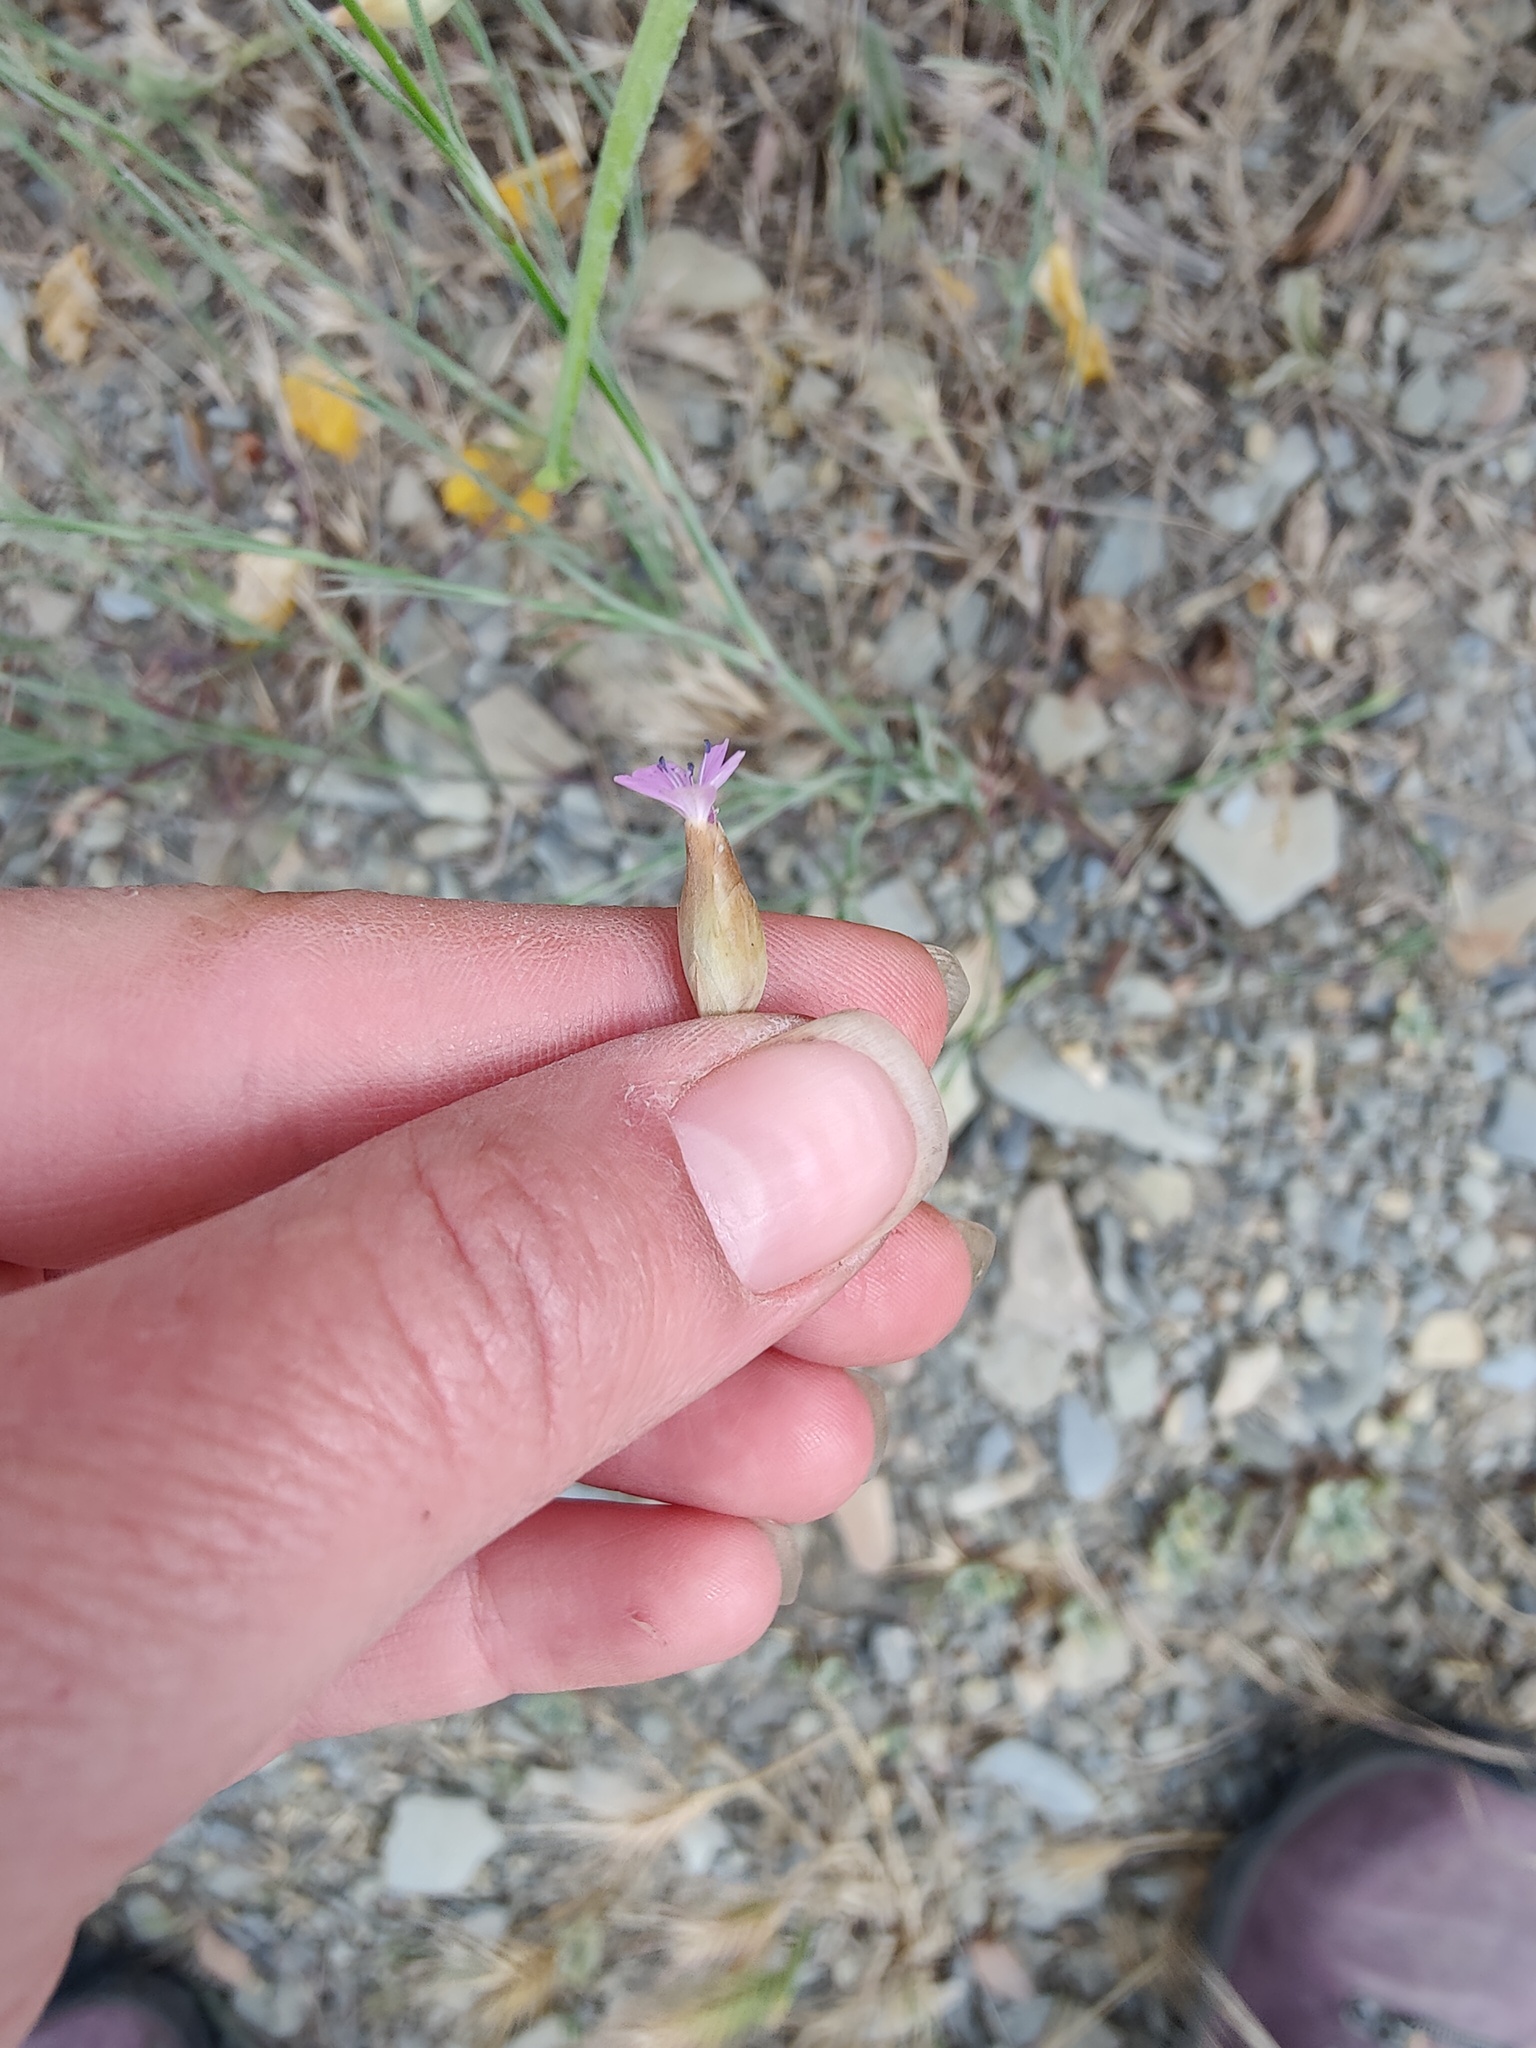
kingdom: Plantae
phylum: Tracheophyta
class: Magnoliopsida
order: Caryophyllales
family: Caryophyllaceae
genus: Petrorhagia
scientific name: Petrorhagia prolifera
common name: Proliferous pink
